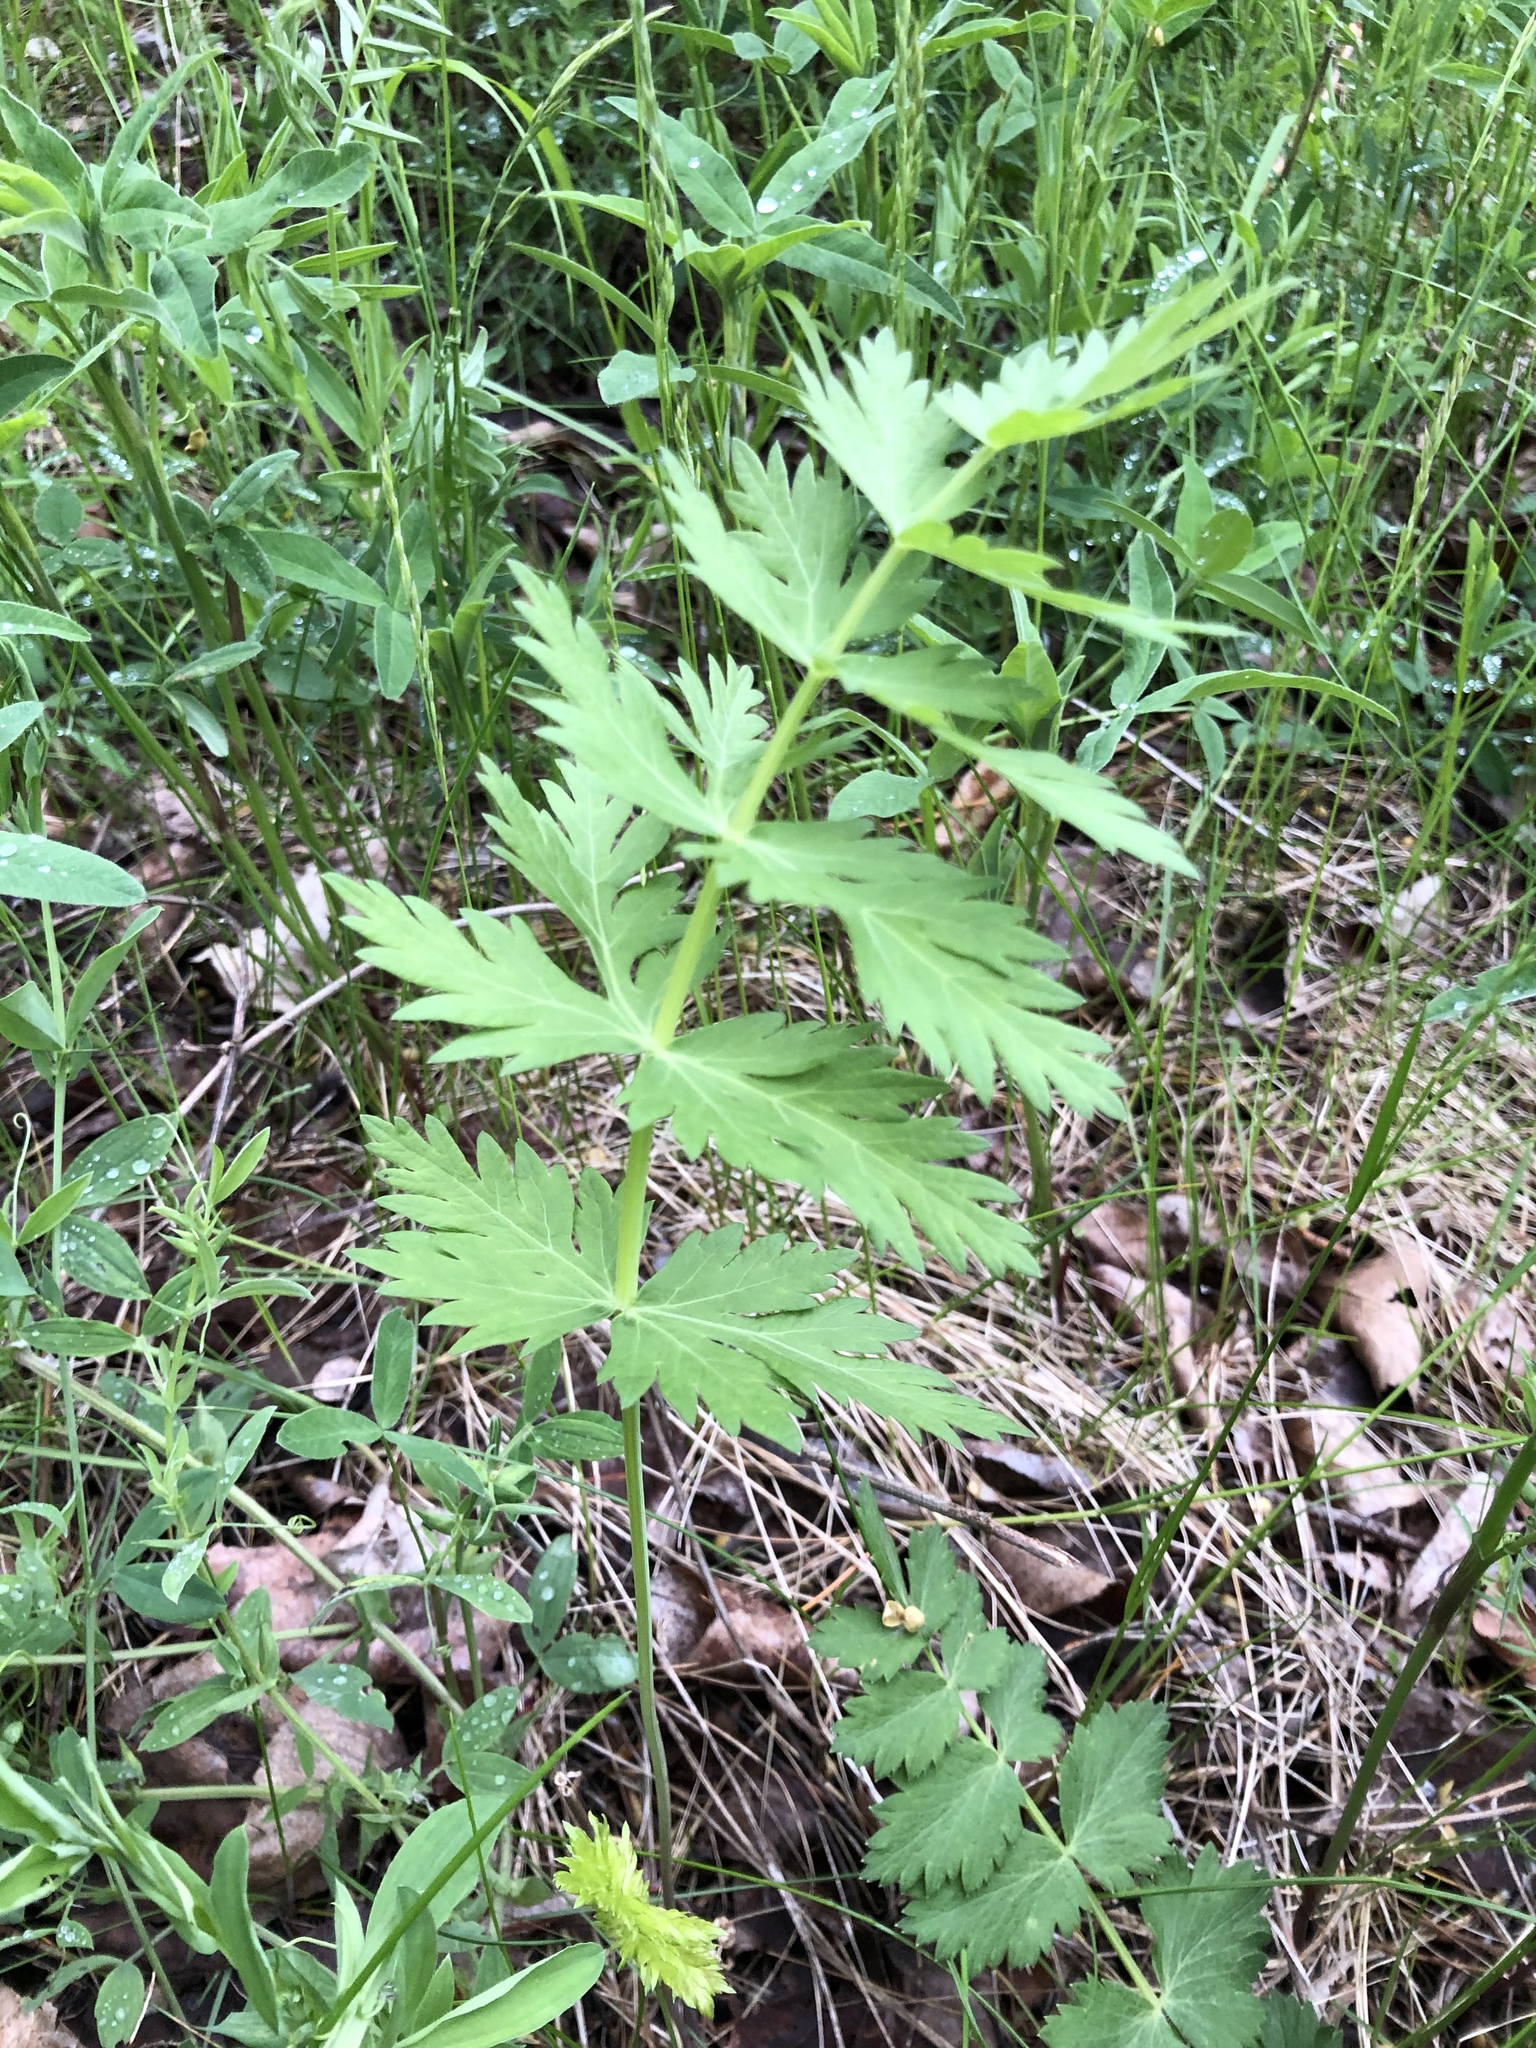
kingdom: Plantae
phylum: Tracheophyta
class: Magnoliopsida
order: Apiales
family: Apiaceae
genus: Seseli
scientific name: Seseli libanotis
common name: Mooncarrot
